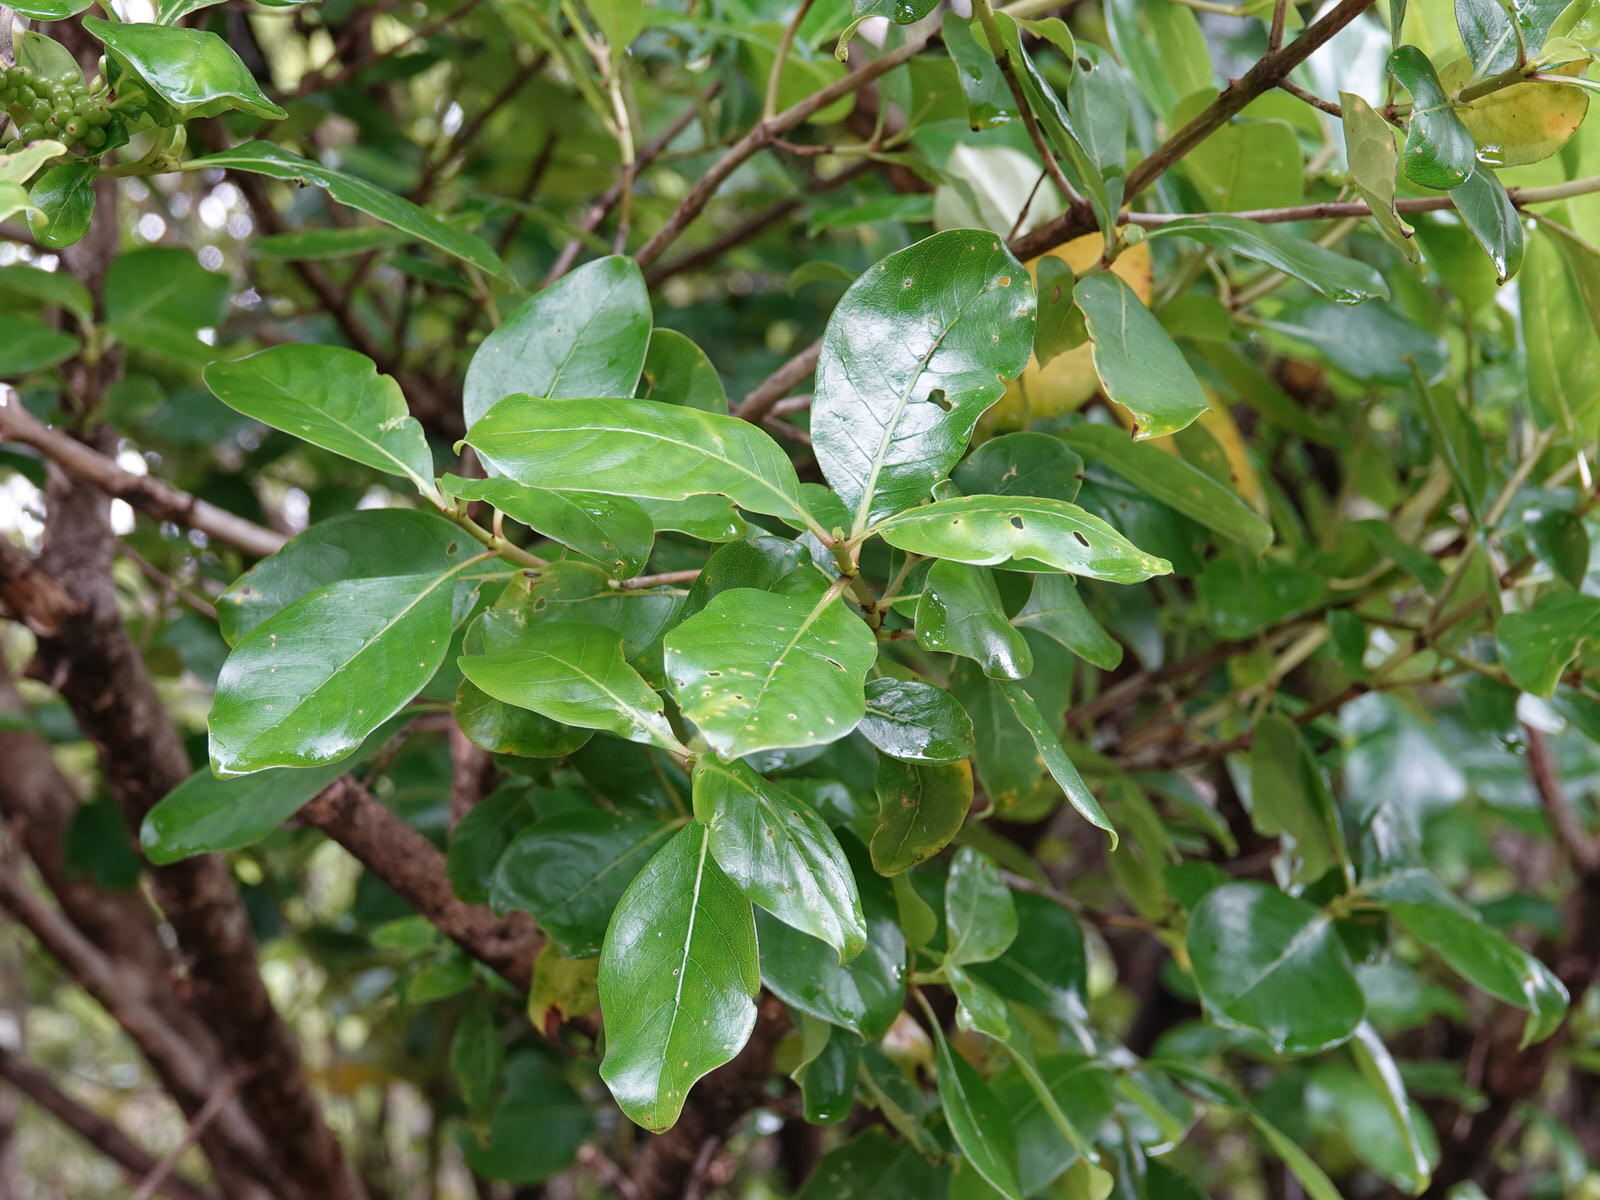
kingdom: Plantae
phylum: Tracheophyta
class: Magnoliopsida
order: Gentianales
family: Rubiaceae
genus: Coprosma
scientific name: Coprosma macrocarpa
